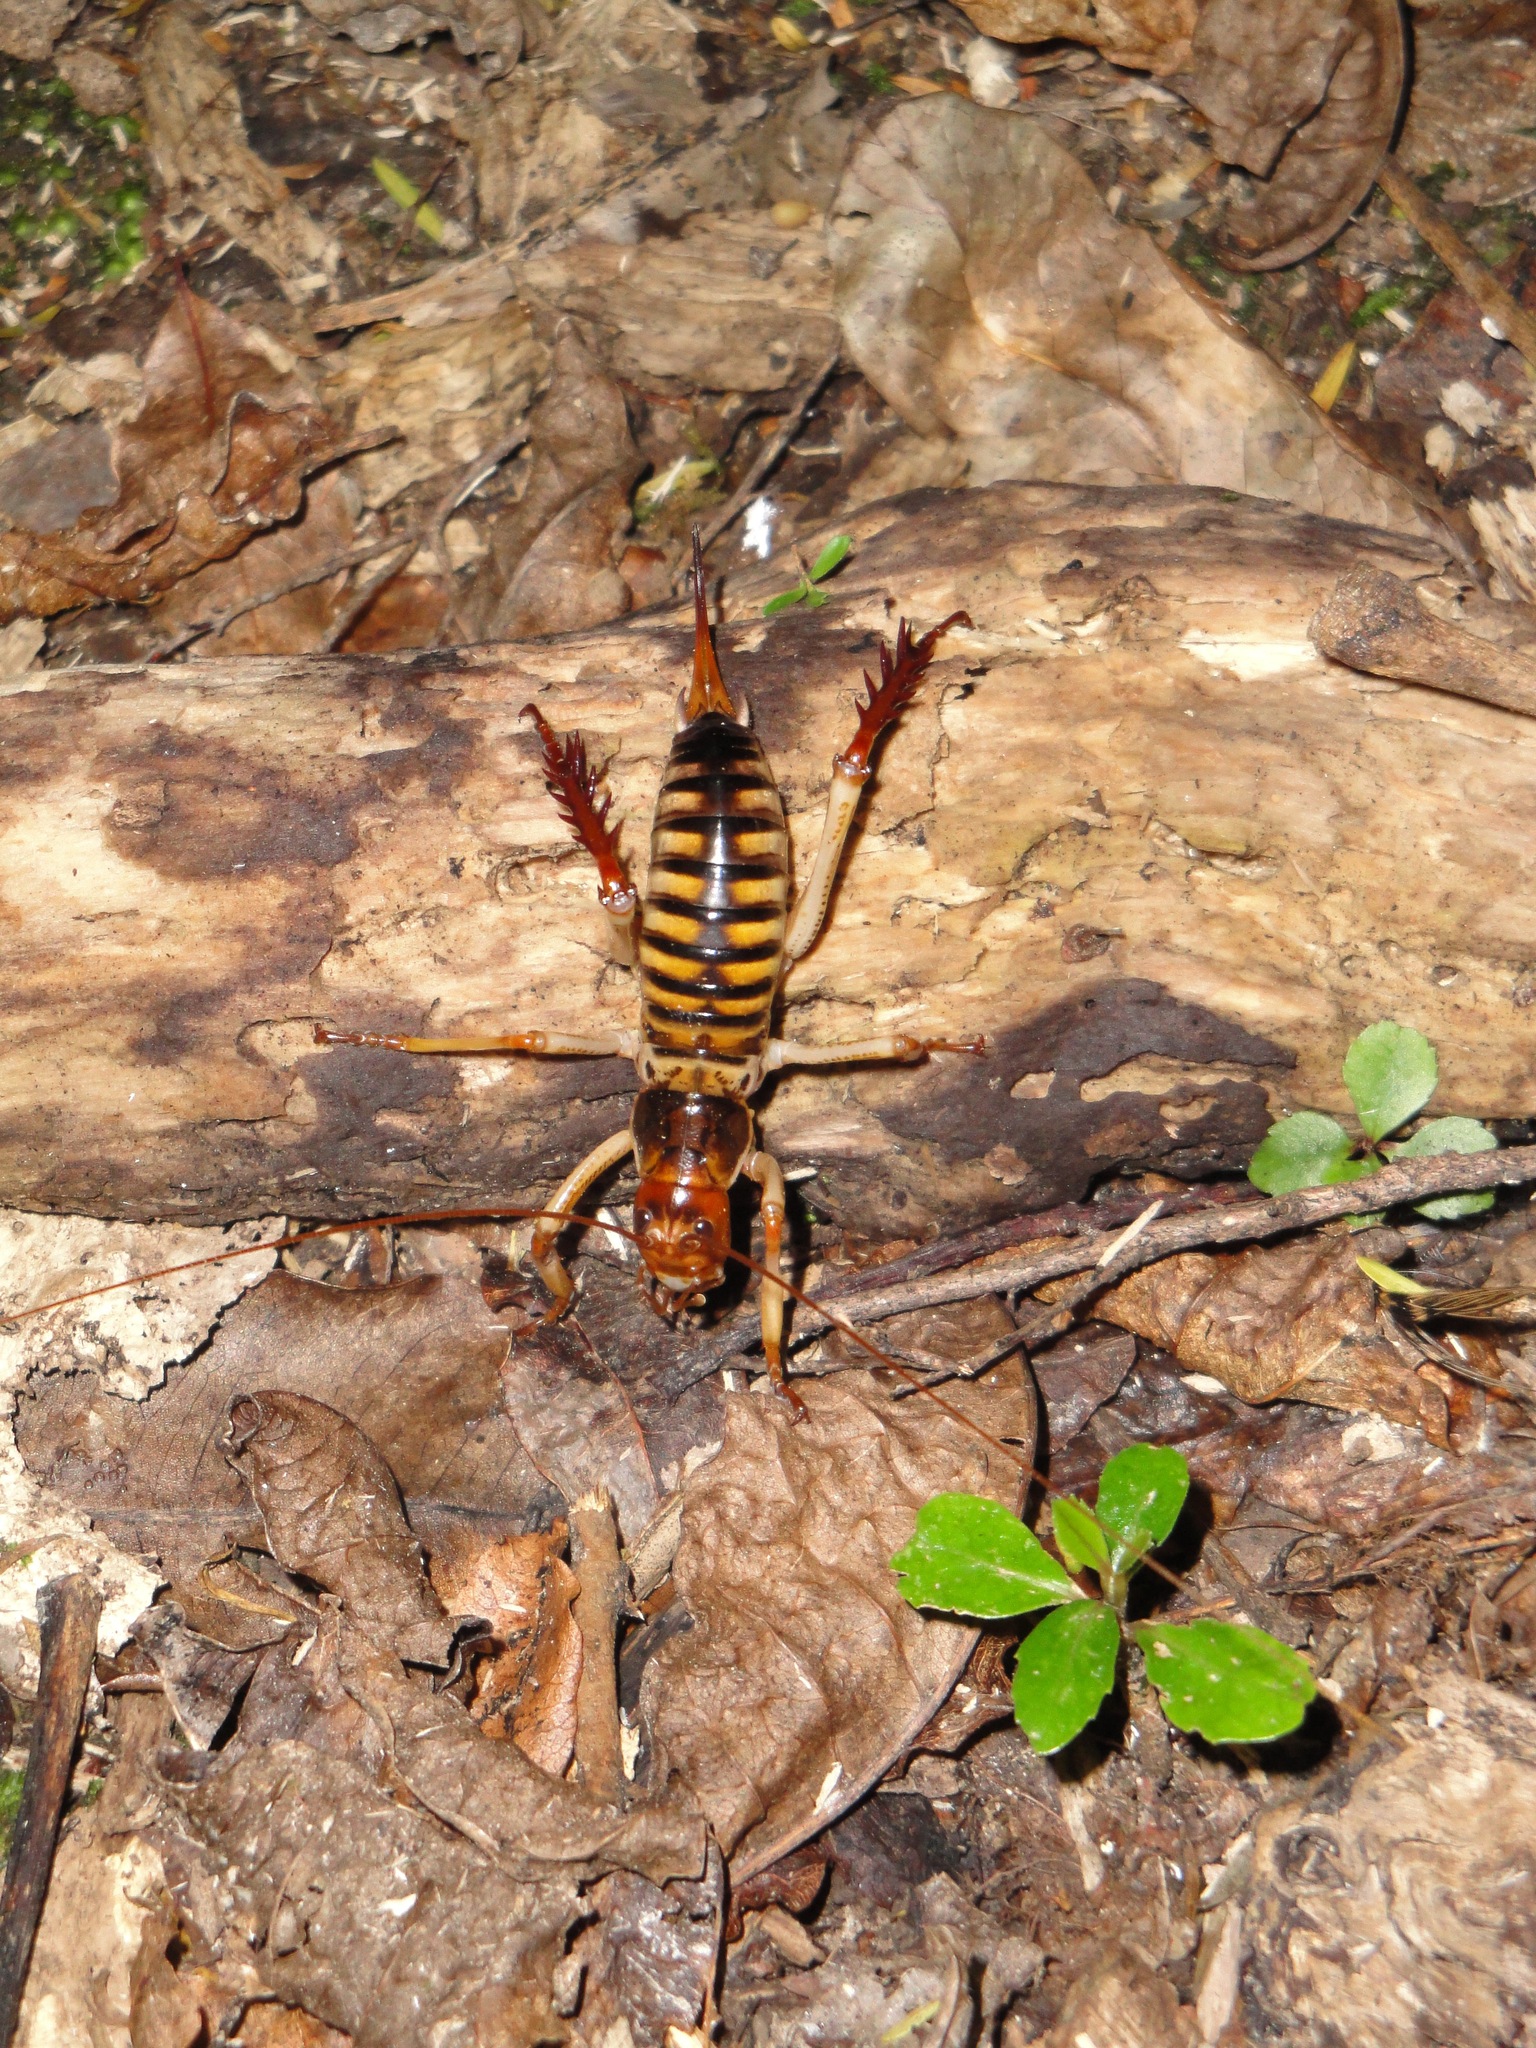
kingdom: Animalia
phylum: Arthropoda
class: Insecta
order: Orthoptera
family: Anostostomatidae
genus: Hemideina
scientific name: Hemideina crassidens
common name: Wellington tree weta
